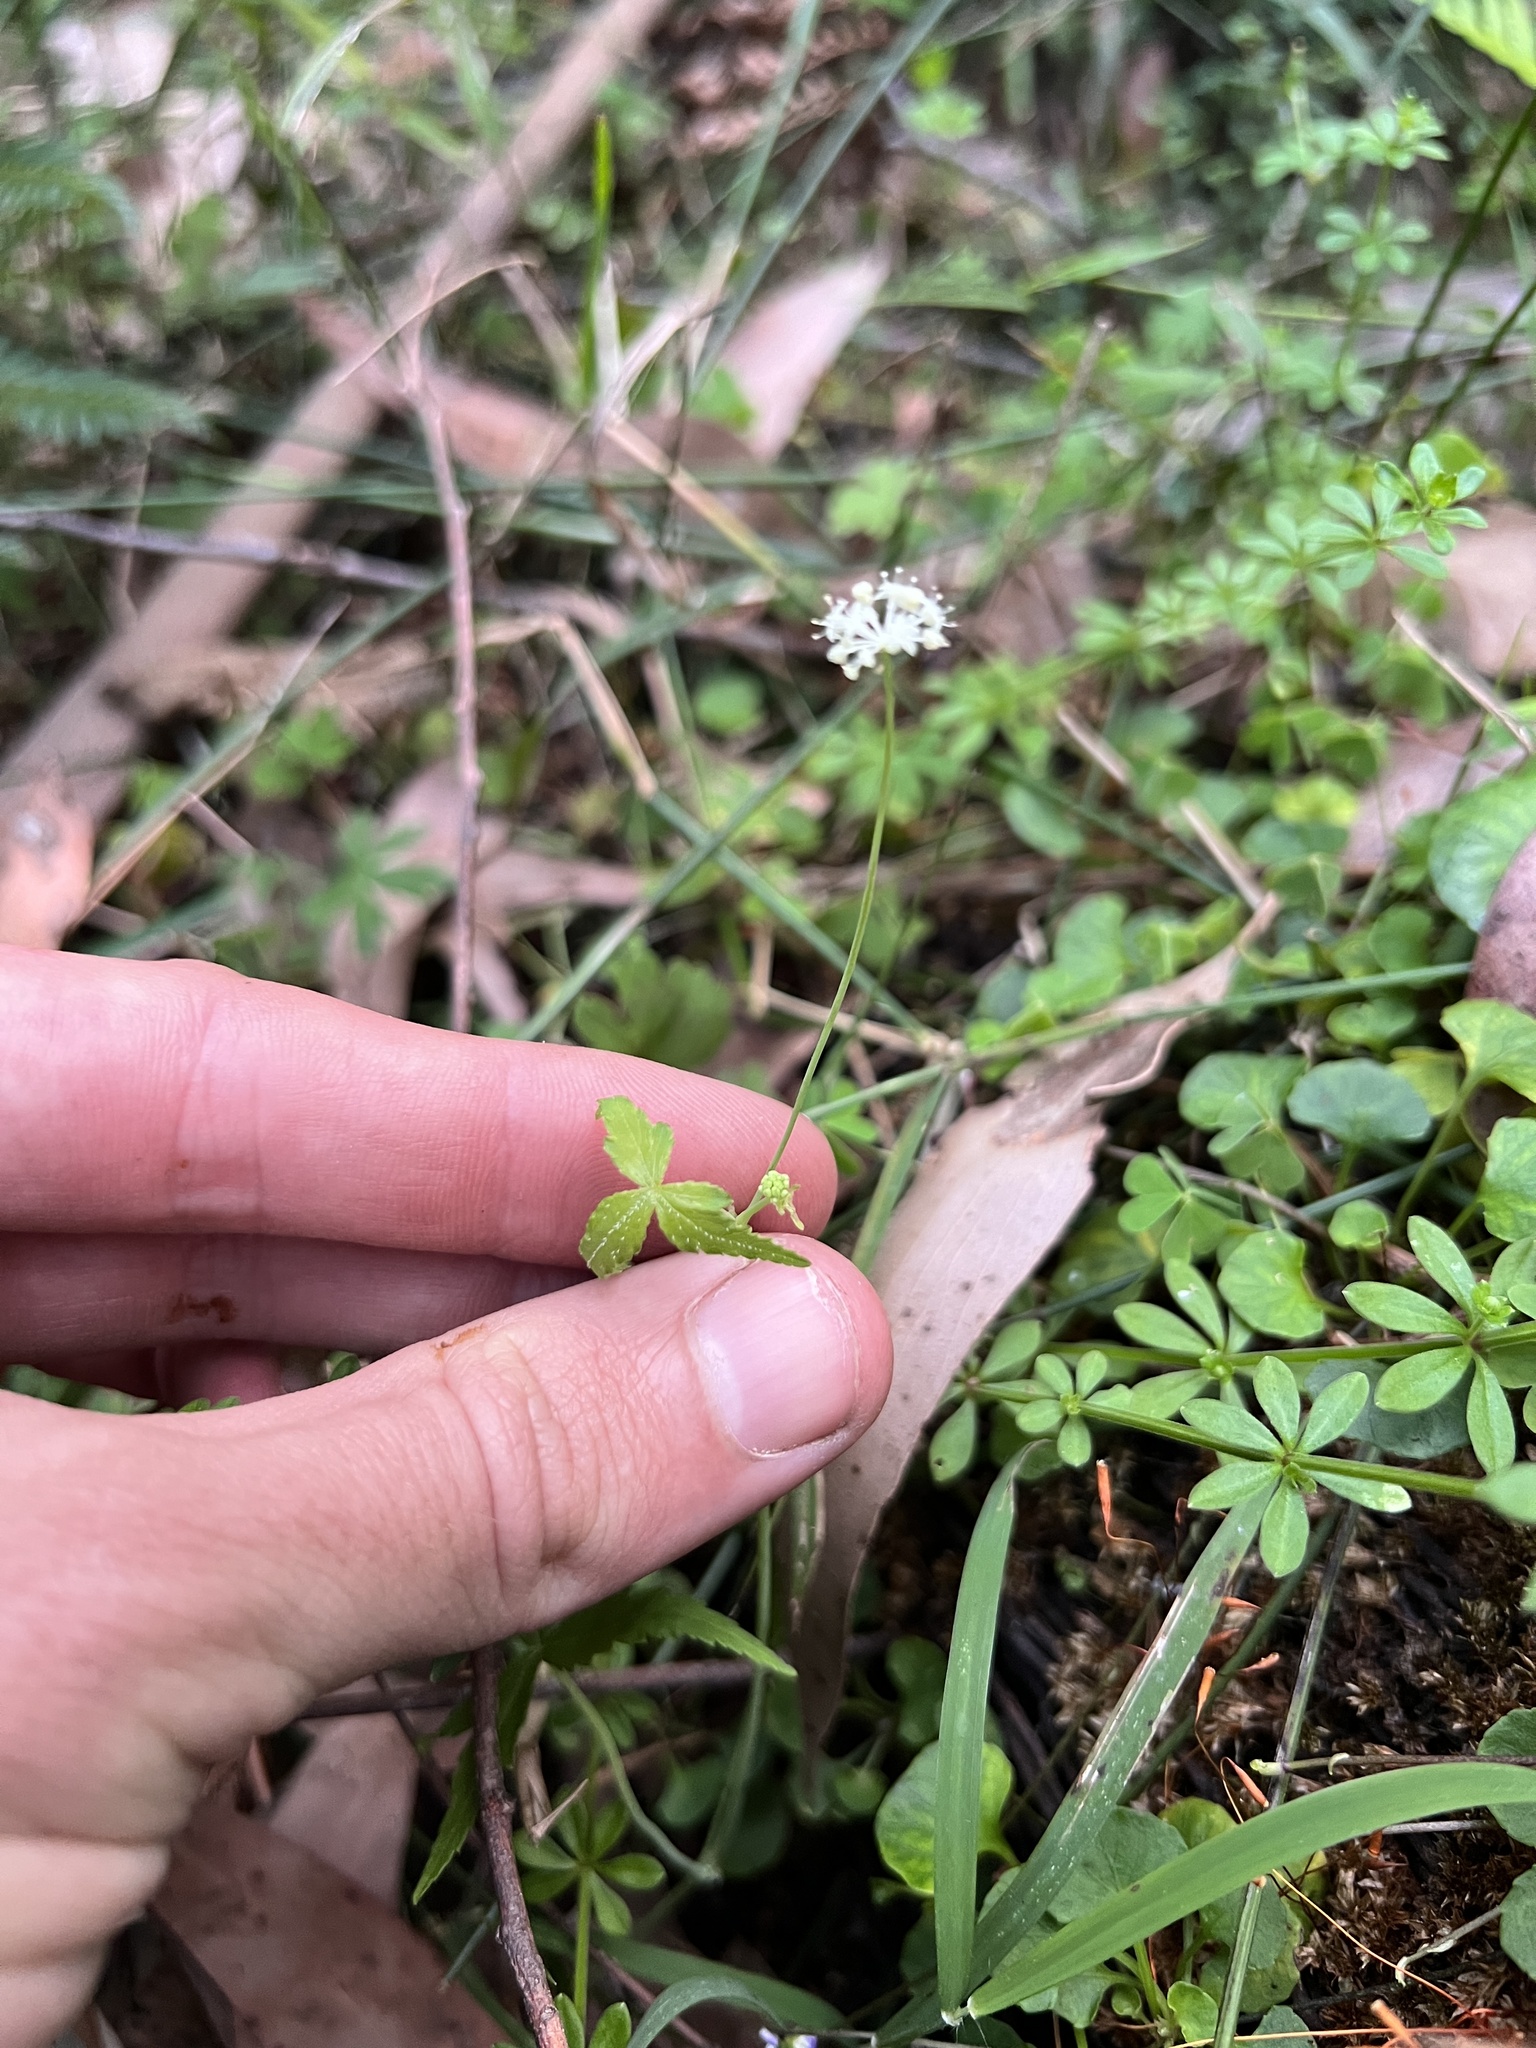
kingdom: Plantae
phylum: Tracheophyta
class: Magnoliopsida
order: Apiales
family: Araliaceae
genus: Hydrocotyle
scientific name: Hydrocotyle geraniifolia
